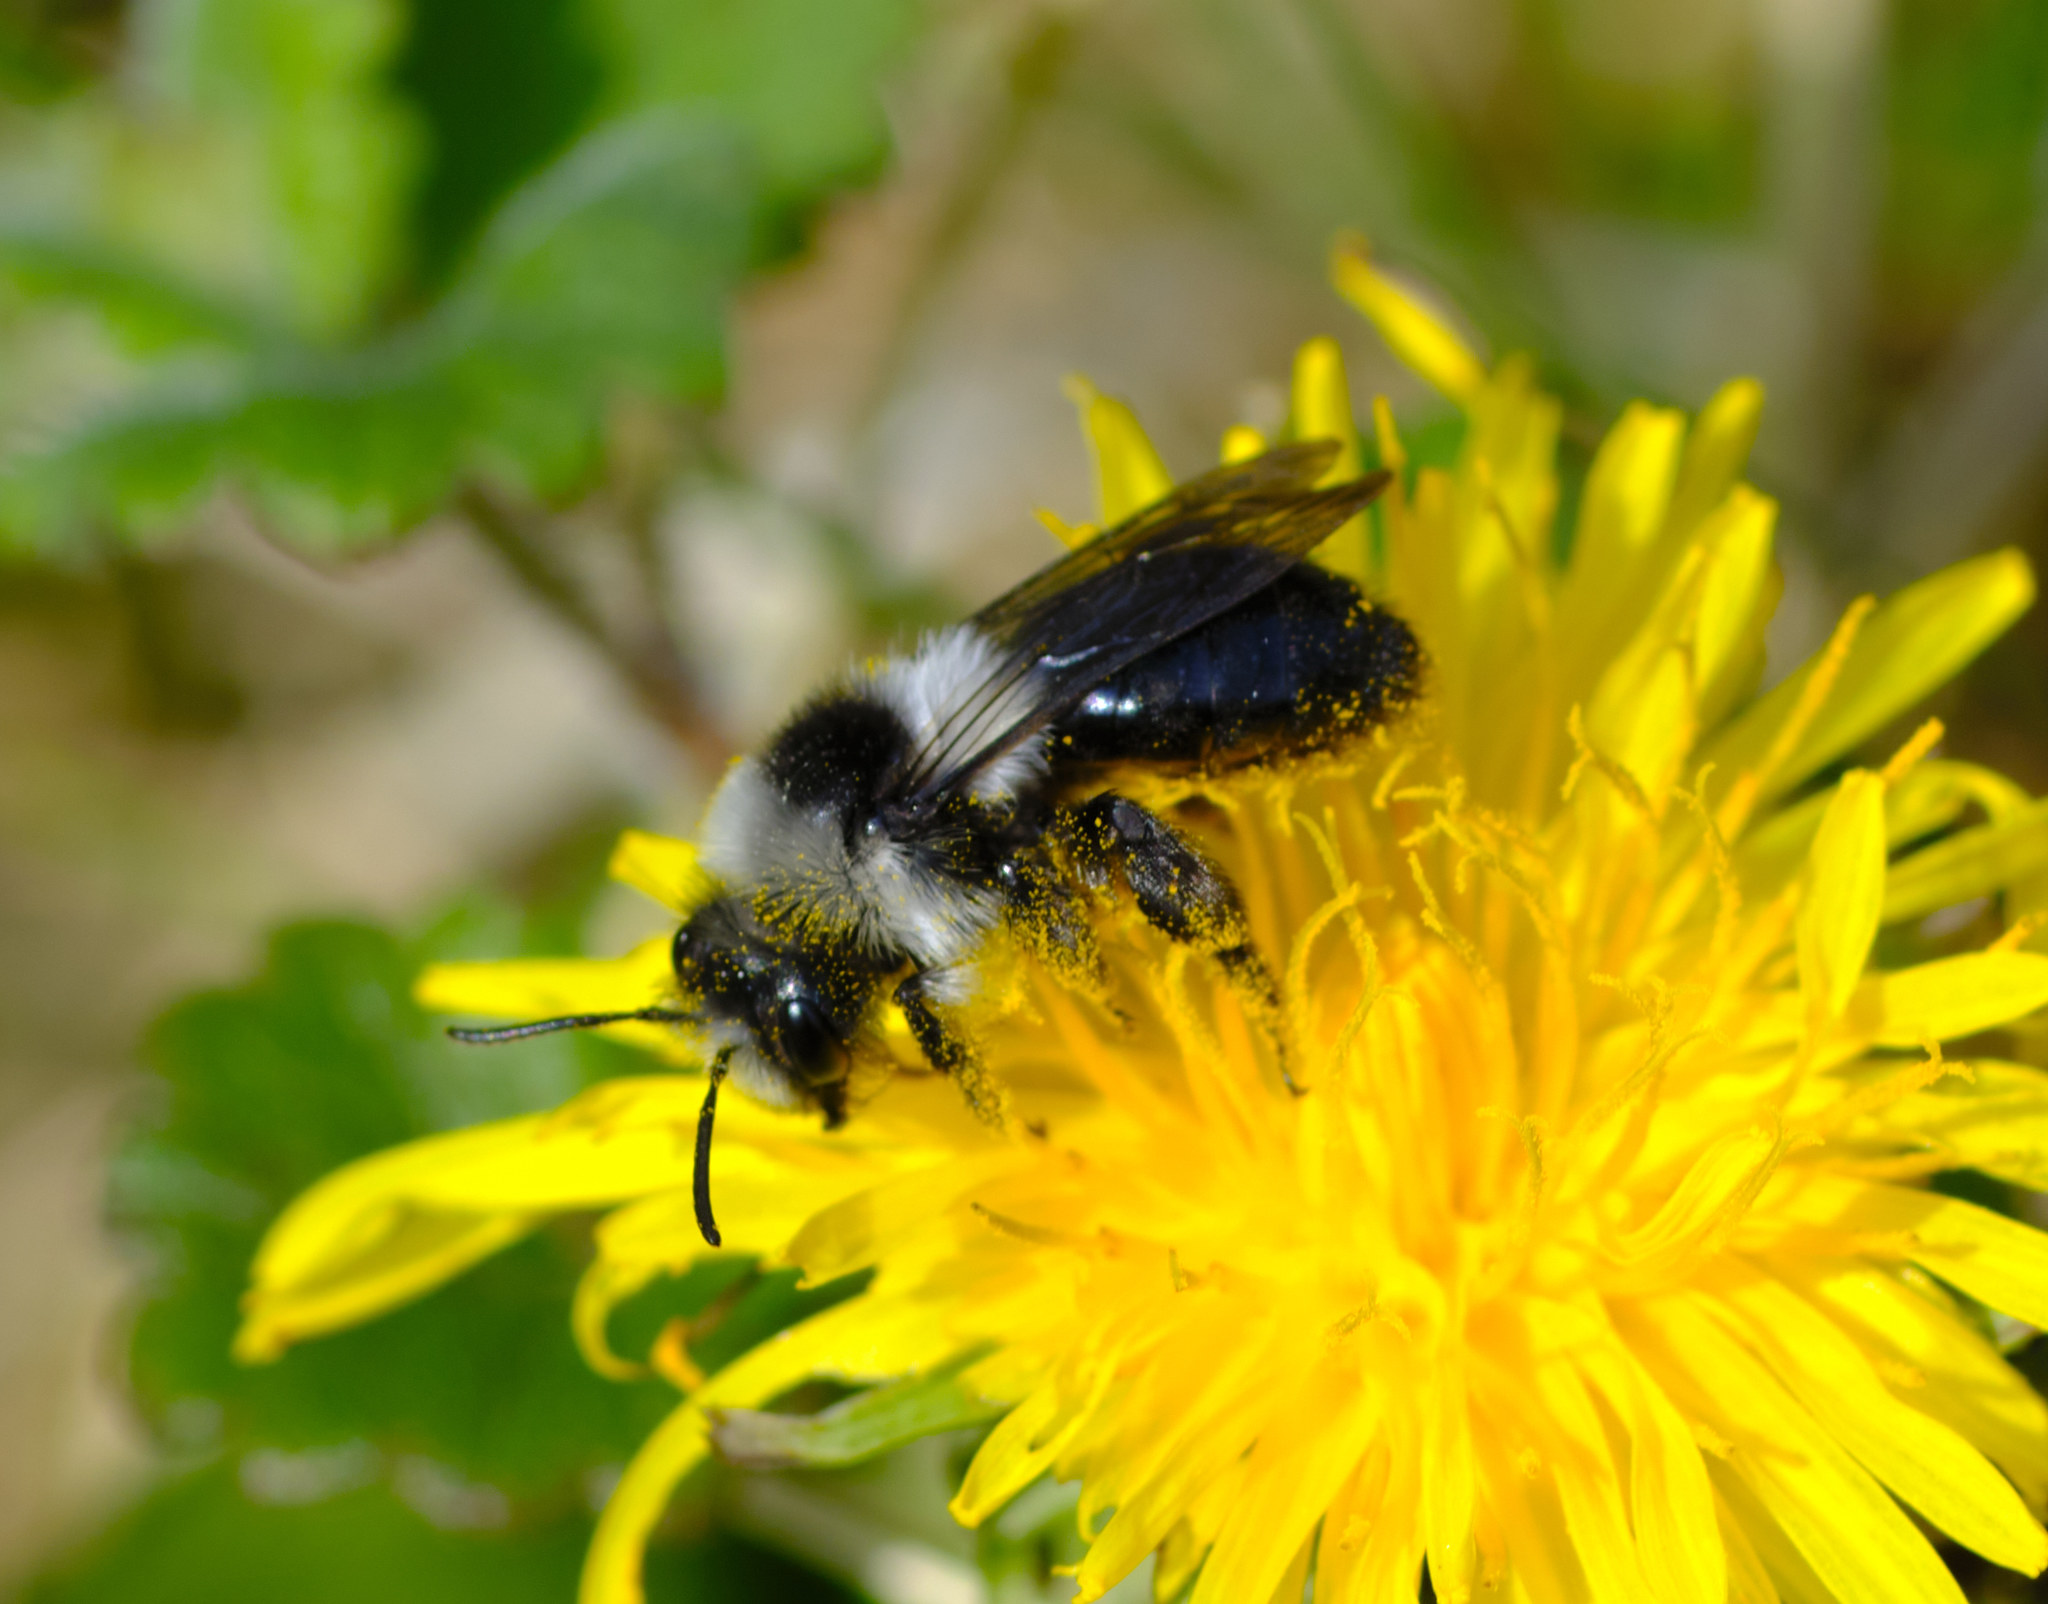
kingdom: Animalia
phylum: Arthropoda
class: Insecta
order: Hymenoptera
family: Andrenidae
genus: Andrena
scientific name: Andrena cineraria
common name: Ashy mining bee
